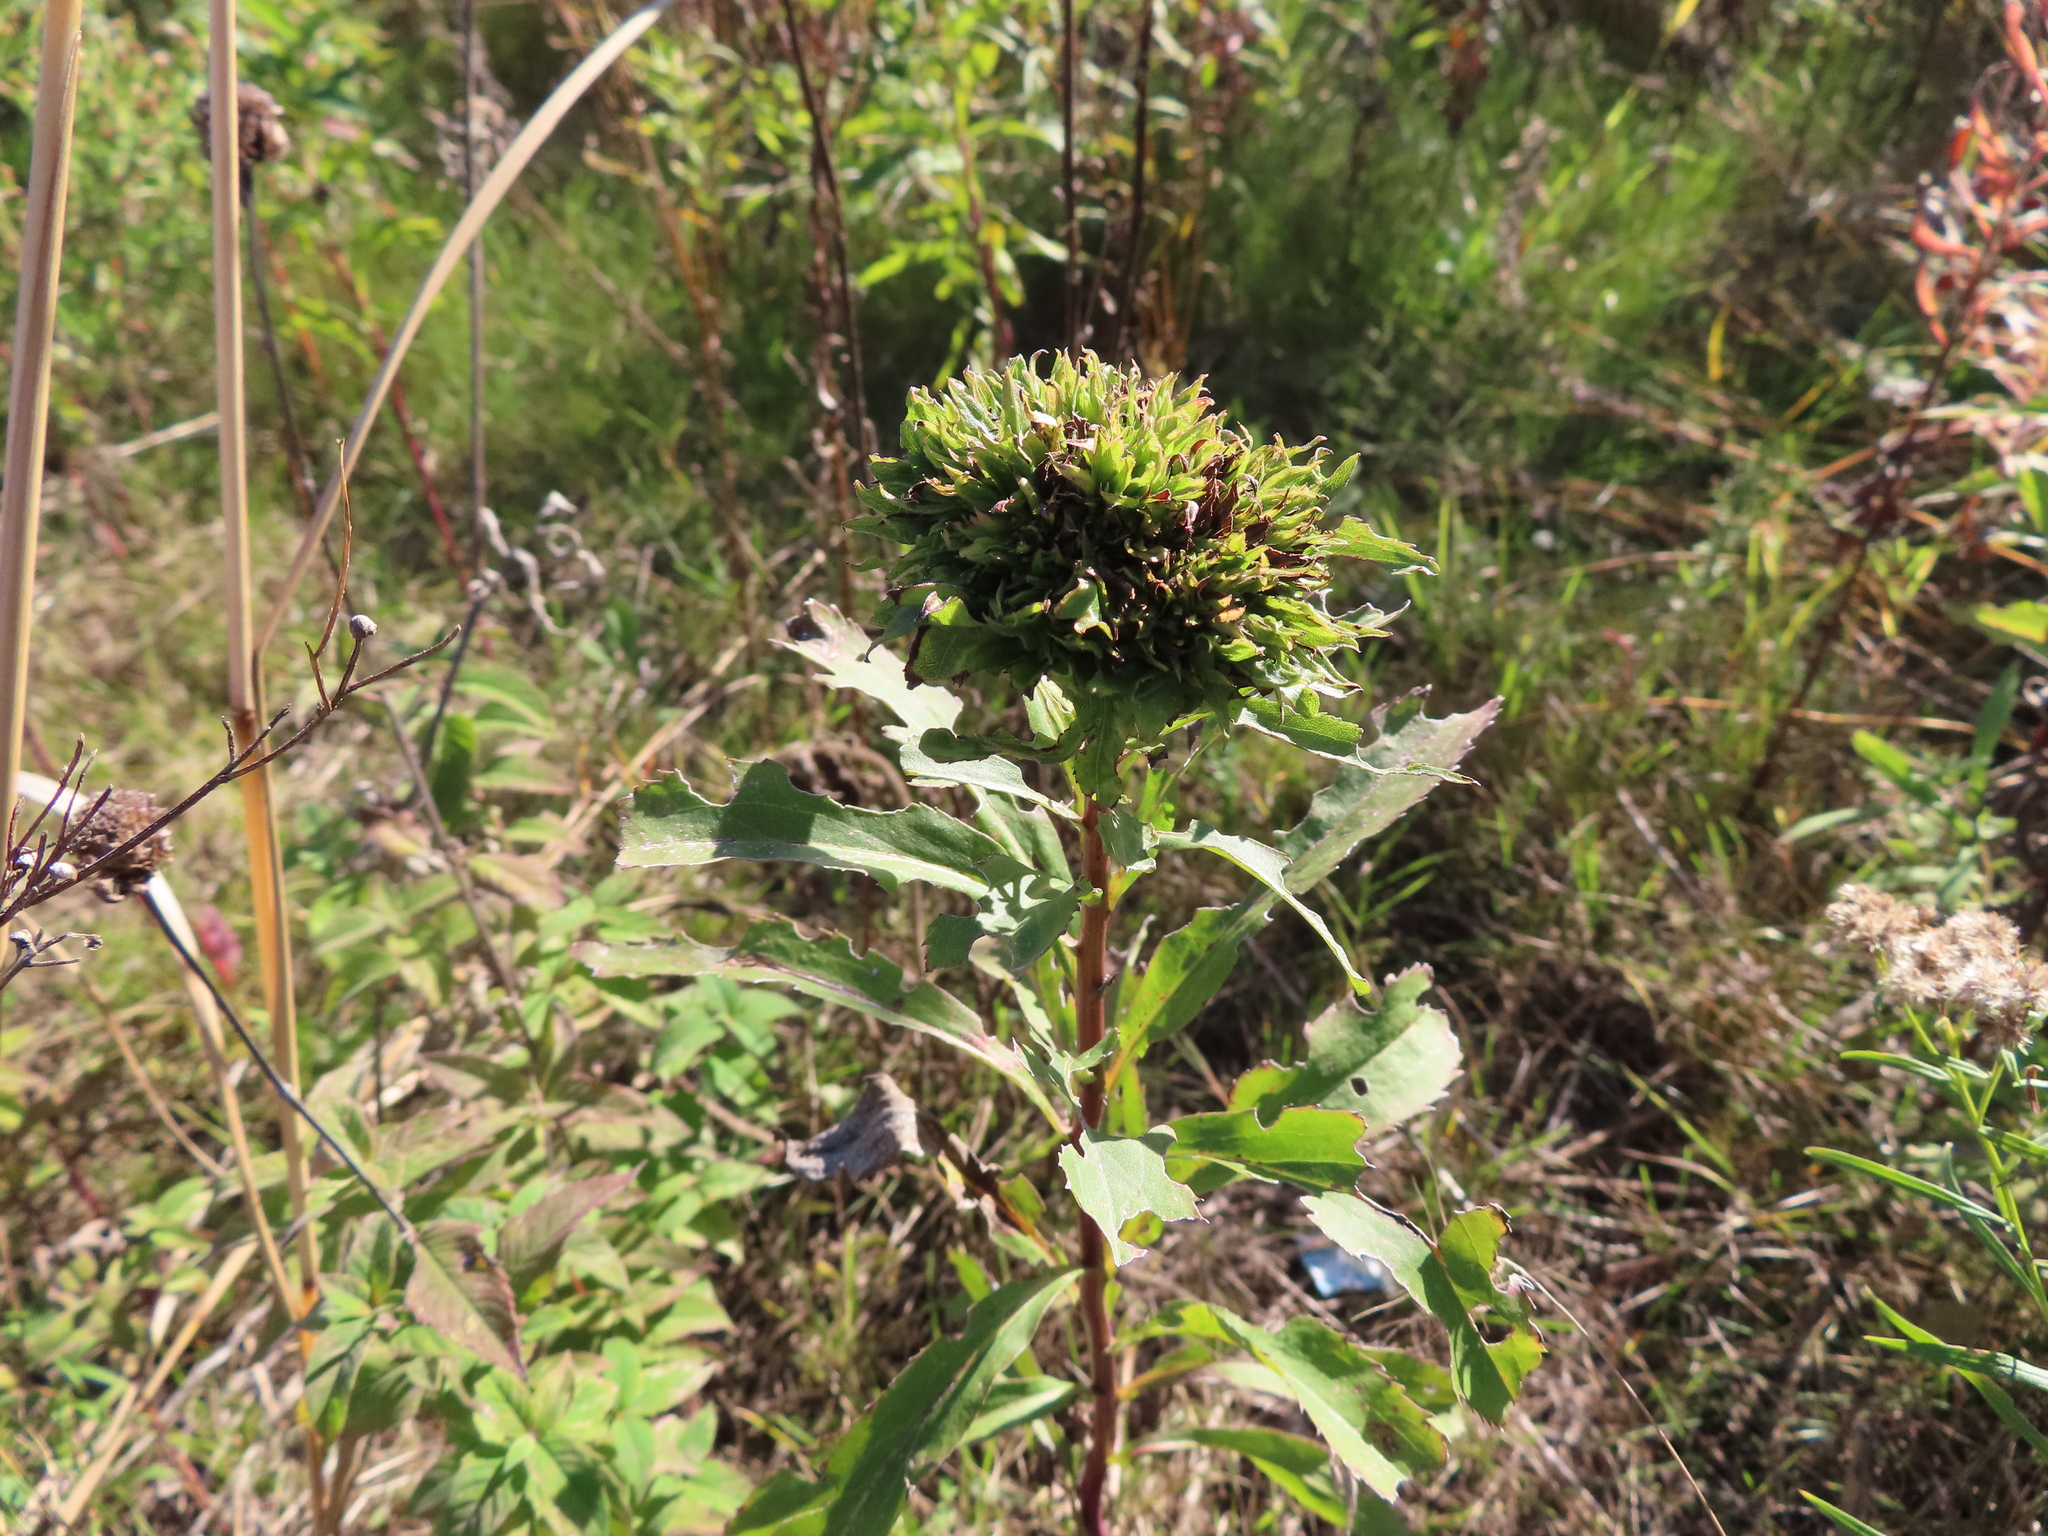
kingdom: Animalia
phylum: Arthropoda
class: Insecta
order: Diptera
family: Cecidomyiidae
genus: Rhopalomyia
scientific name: Rhopalomyia capitata
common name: Giant goldenrod bunch gall midge
